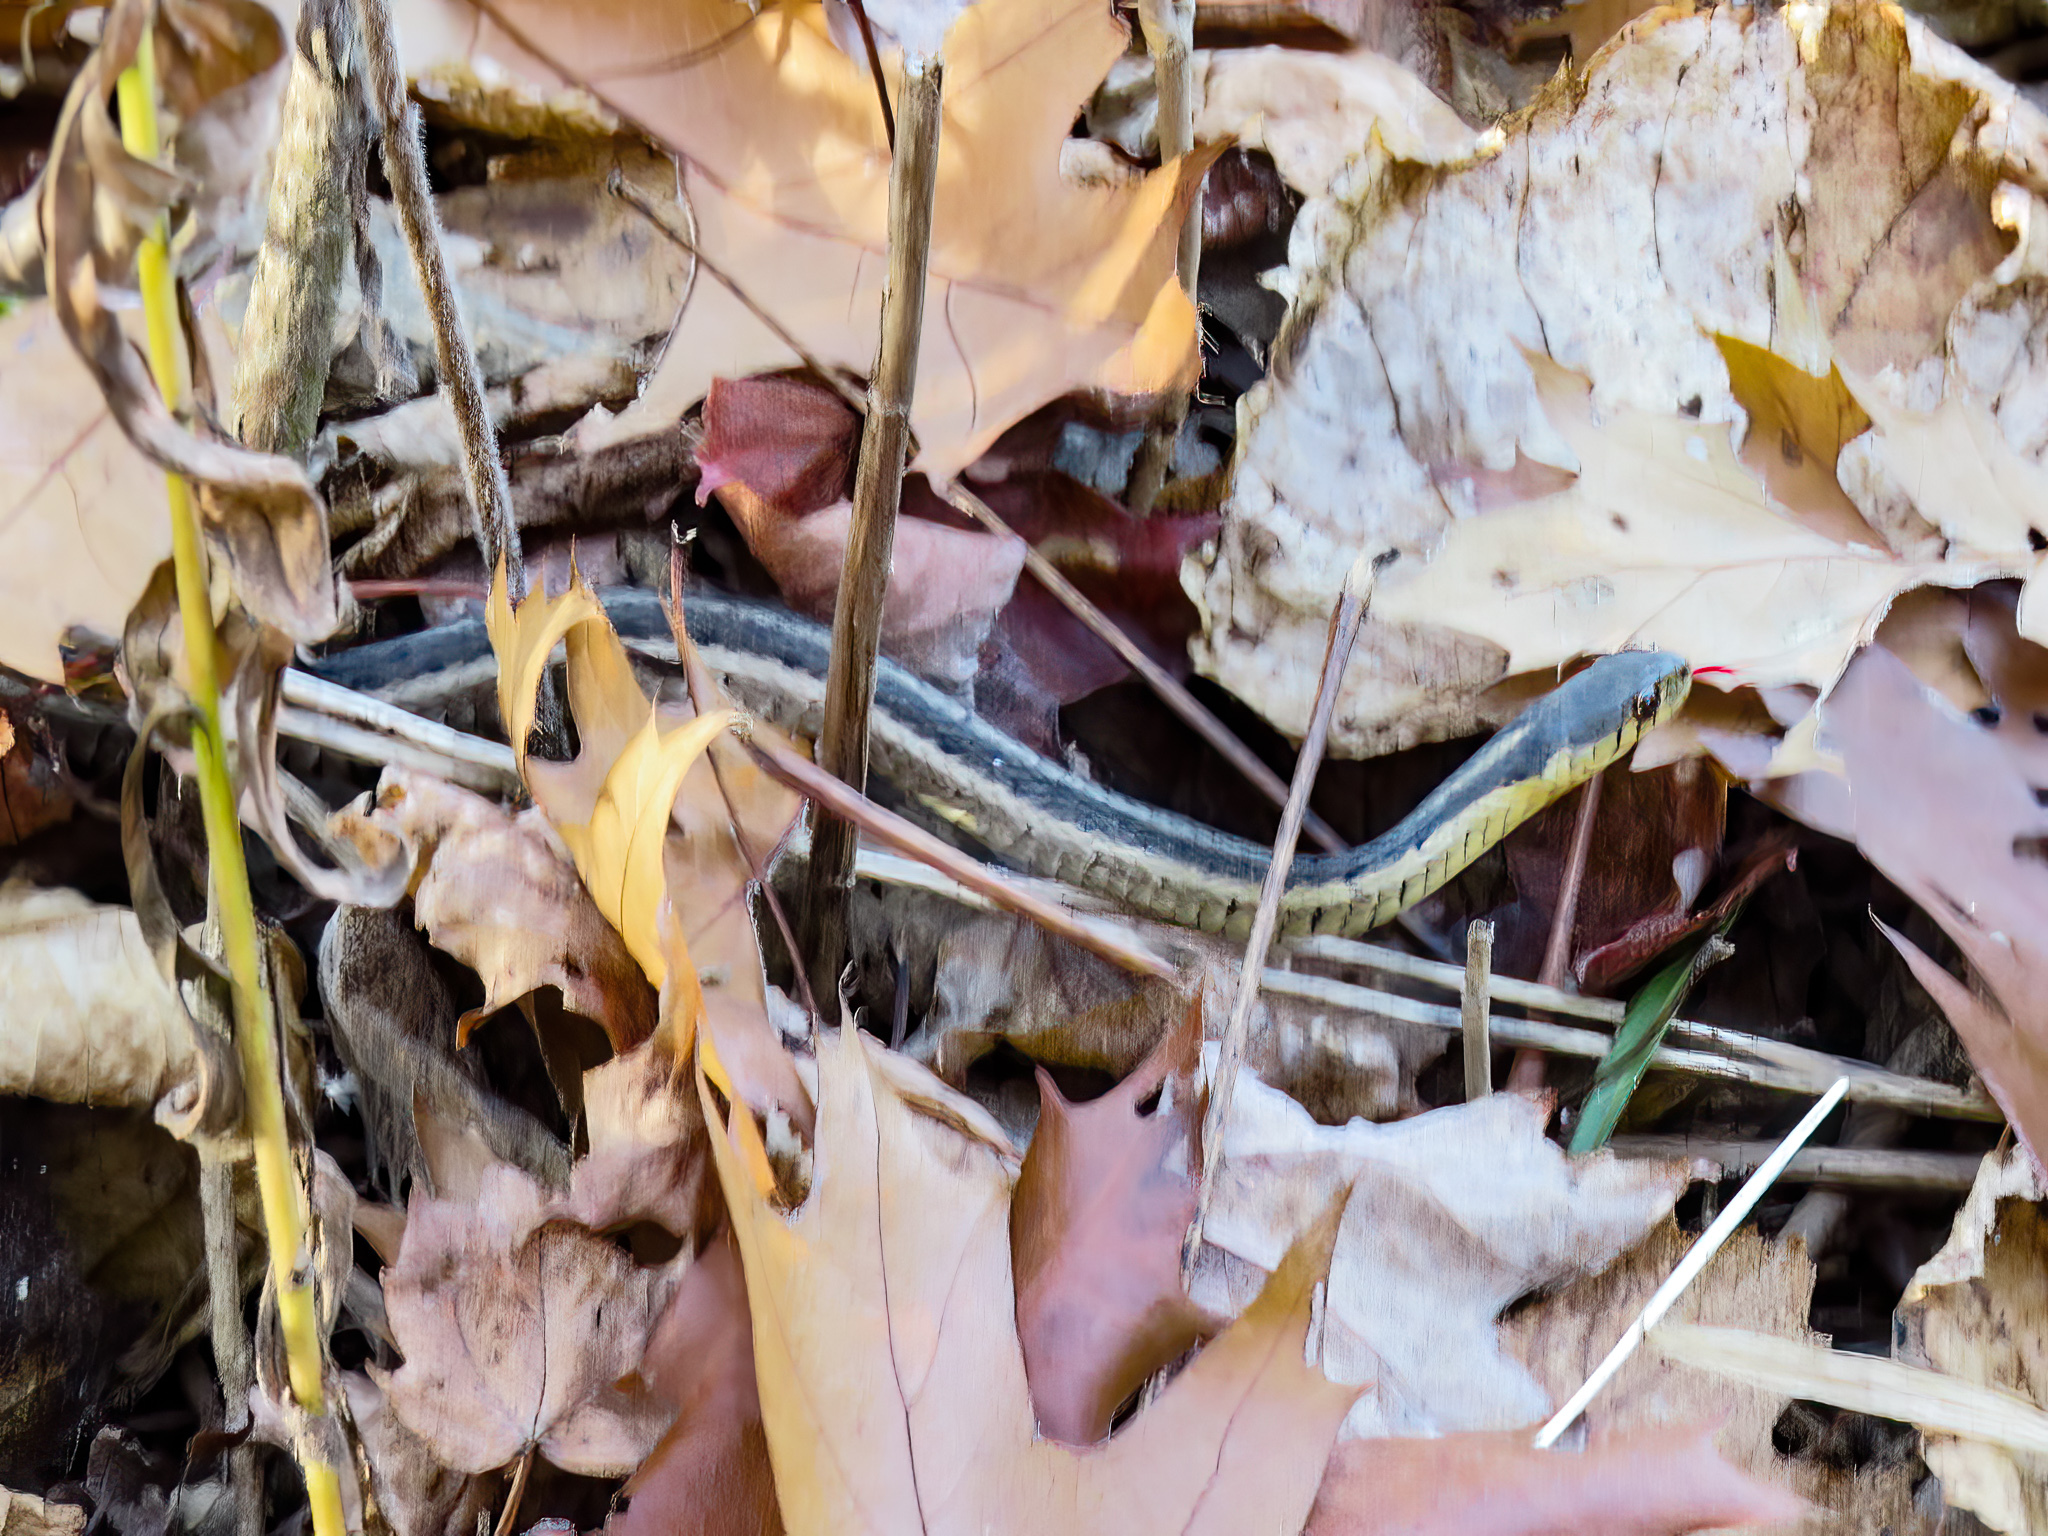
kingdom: Animalia
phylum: Chordata
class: Squamata
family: Colubridae
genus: Thamnophis
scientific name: Thamnophis sirtalis
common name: Common garter snake
